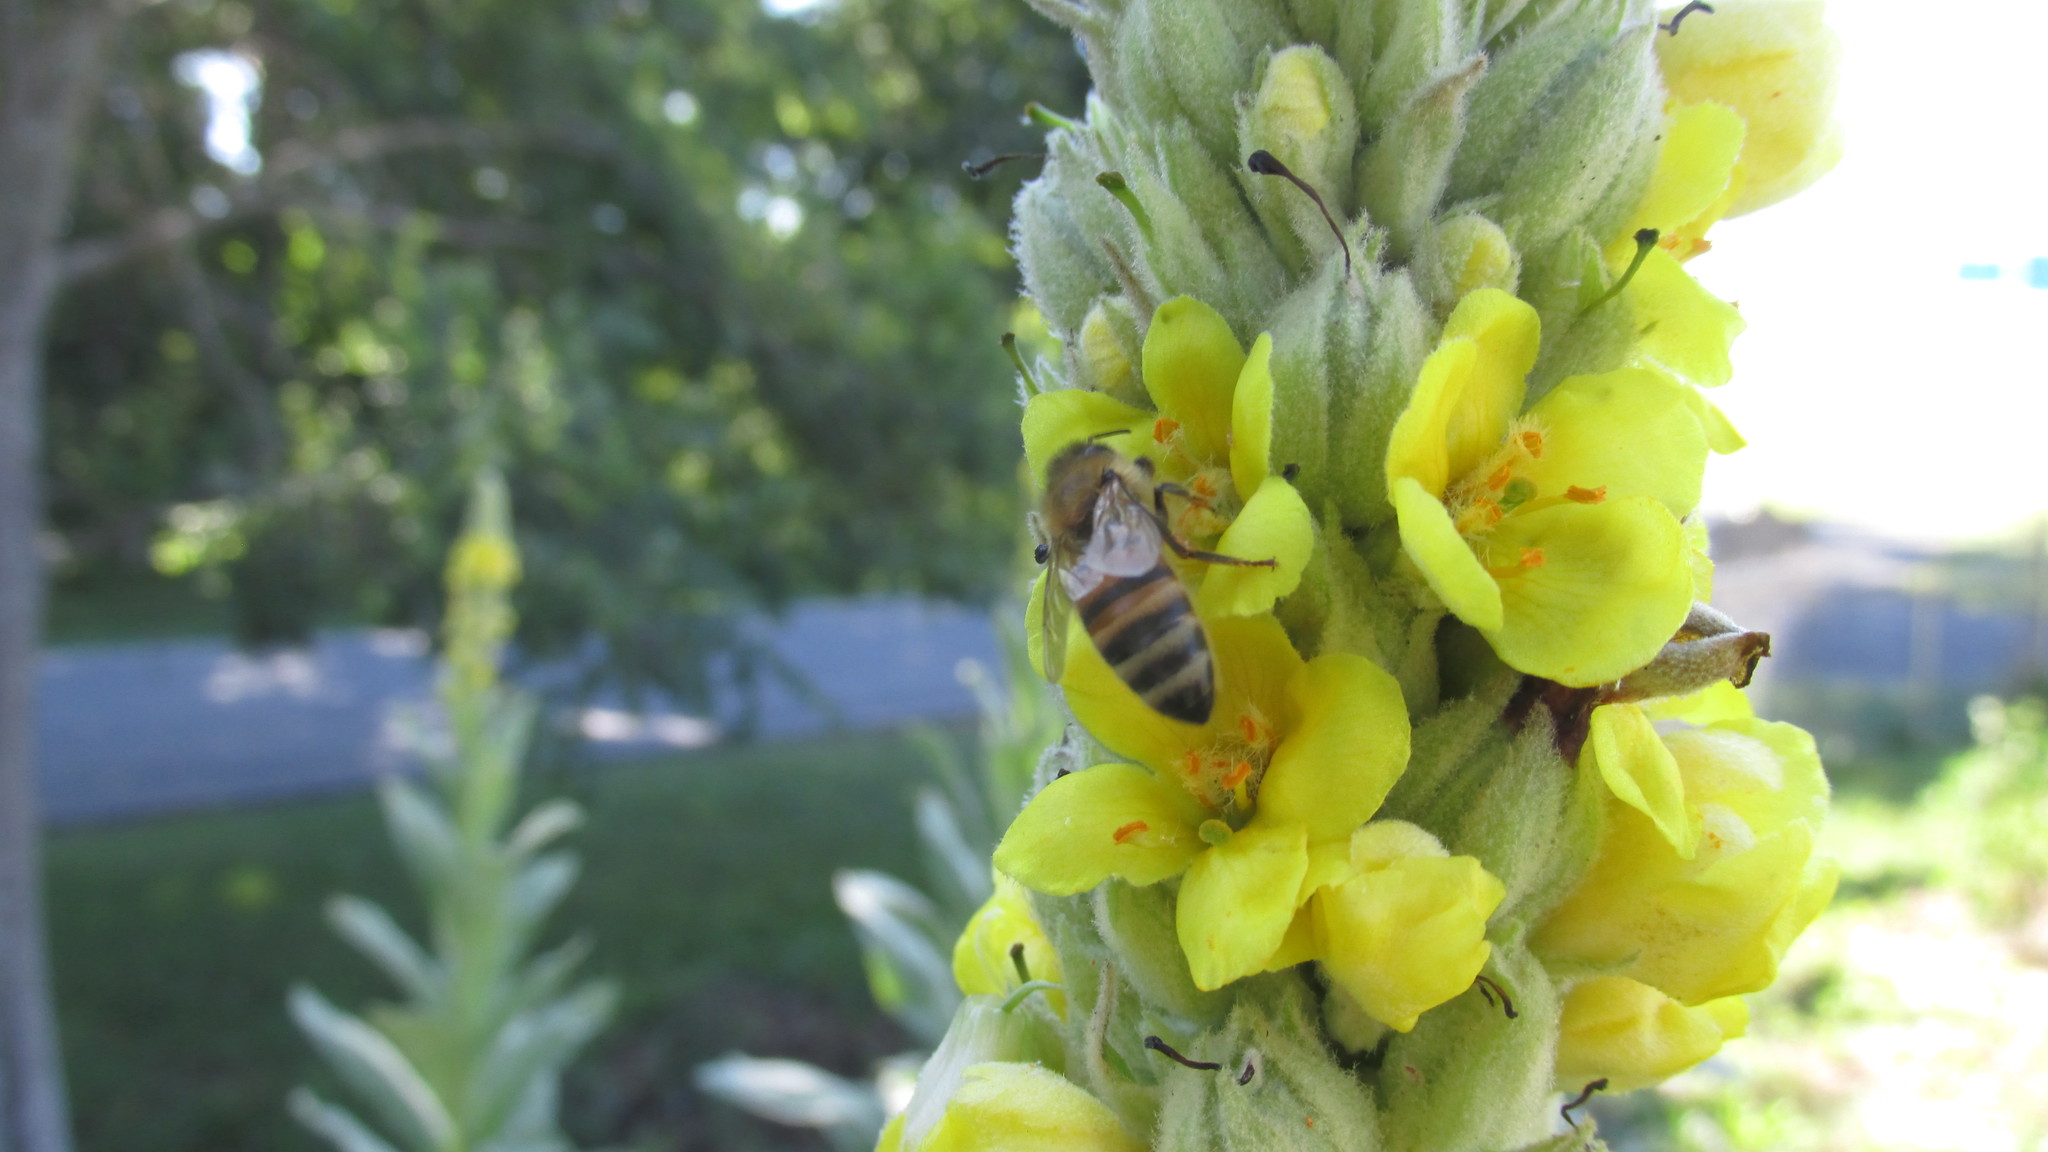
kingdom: Animalia
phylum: Arthropoda
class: Insecta
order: Hymenoptera
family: Apidae
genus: Apis
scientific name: Apis mellifera
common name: Honey bee
